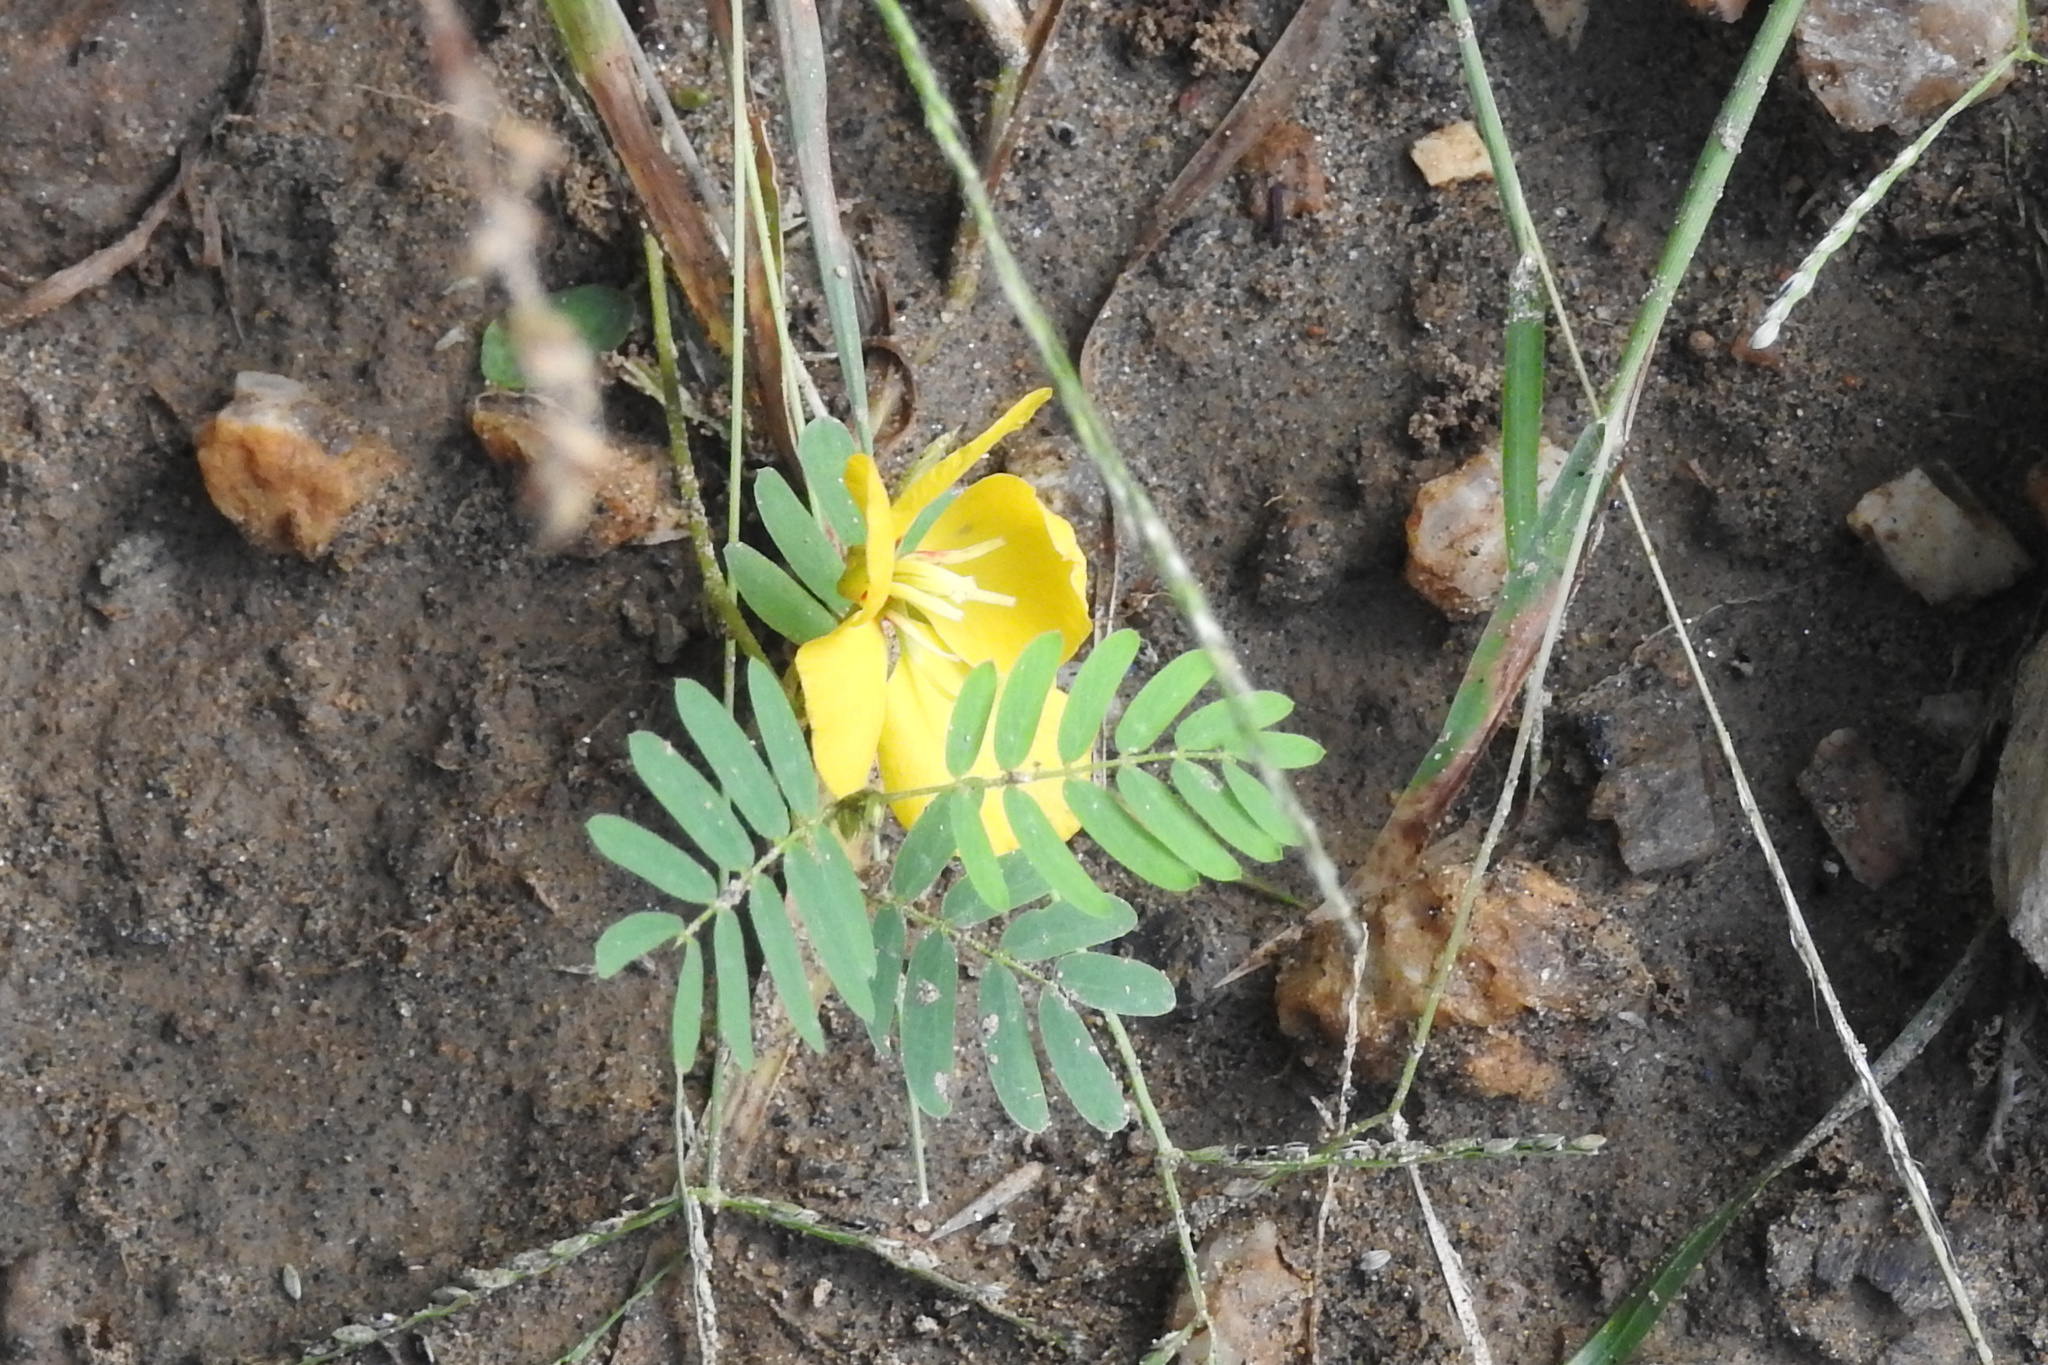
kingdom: Plantae
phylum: Tracheophyta
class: Magnoliopsida
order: Fabales
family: Fabaceae
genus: Chamaecrista
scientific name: Chamaecrista fasciculata
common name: Golden cassia
